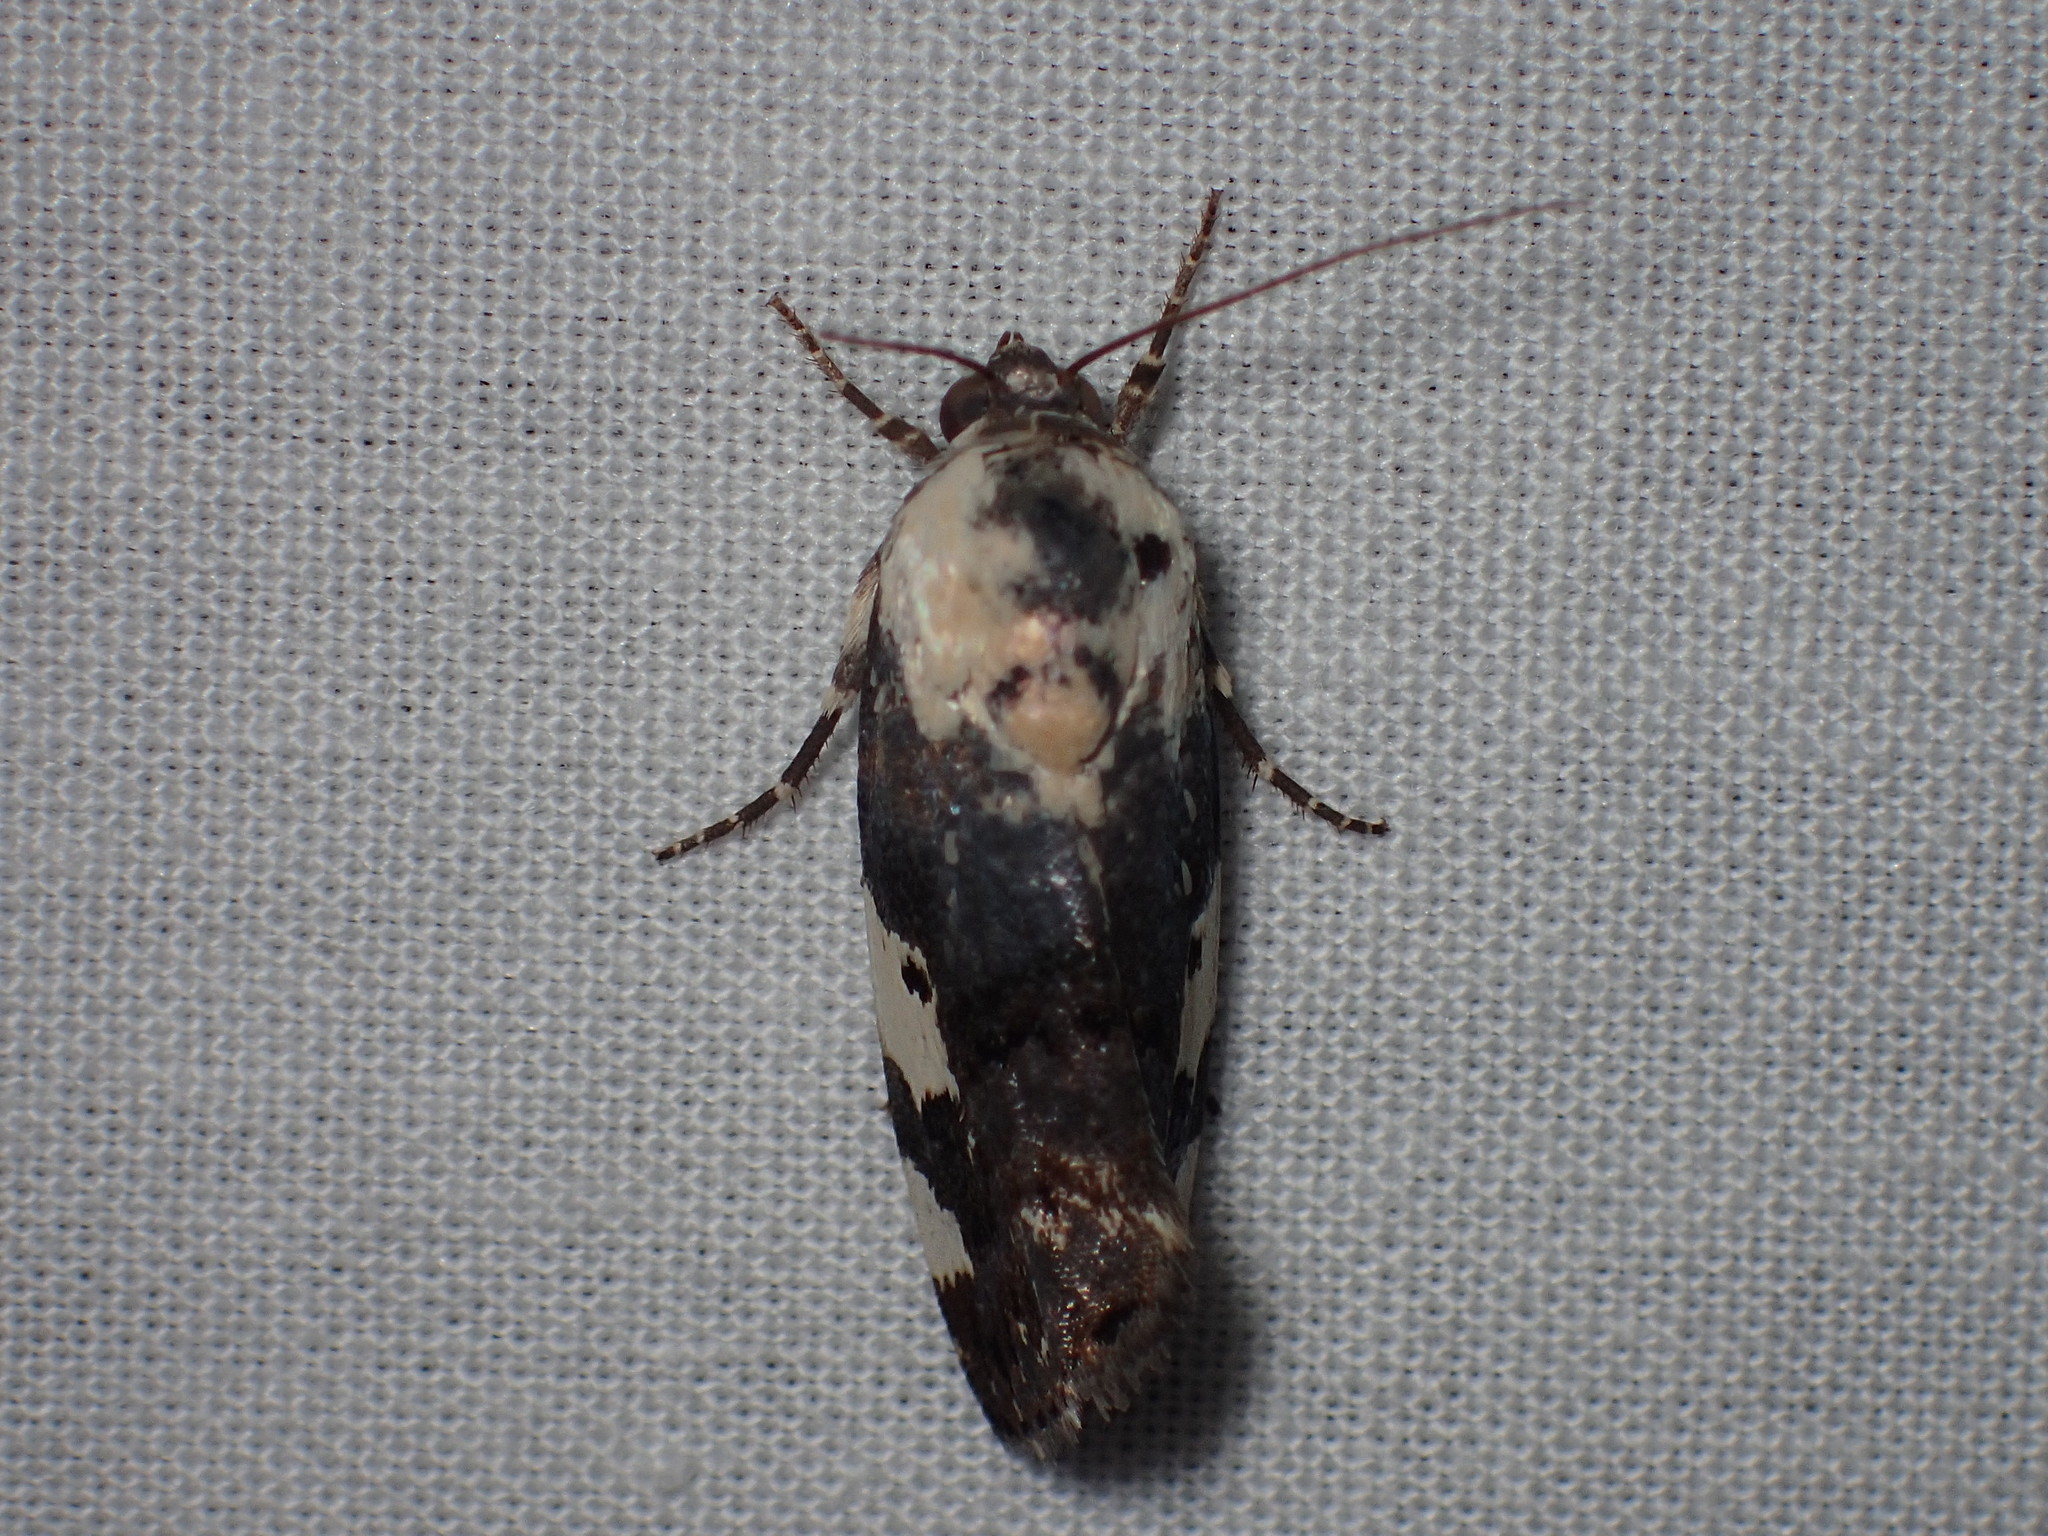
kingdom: Animalia
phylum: Arthropoda
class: Insecta
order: Lepidoptera
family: Noctuidae
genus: Acontia
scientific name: Acontia aprica
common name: Nun
